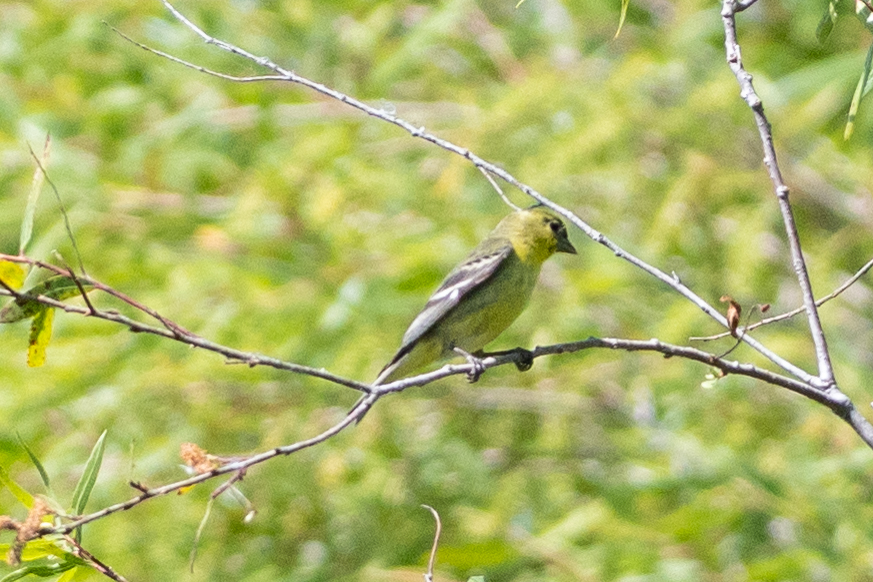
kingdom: Animalia
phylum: Chordata
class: Aves
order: Passeriformes
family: Fringillidae
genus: Spinus
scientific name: Spinus psaltria
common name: Lesser goldfinch
